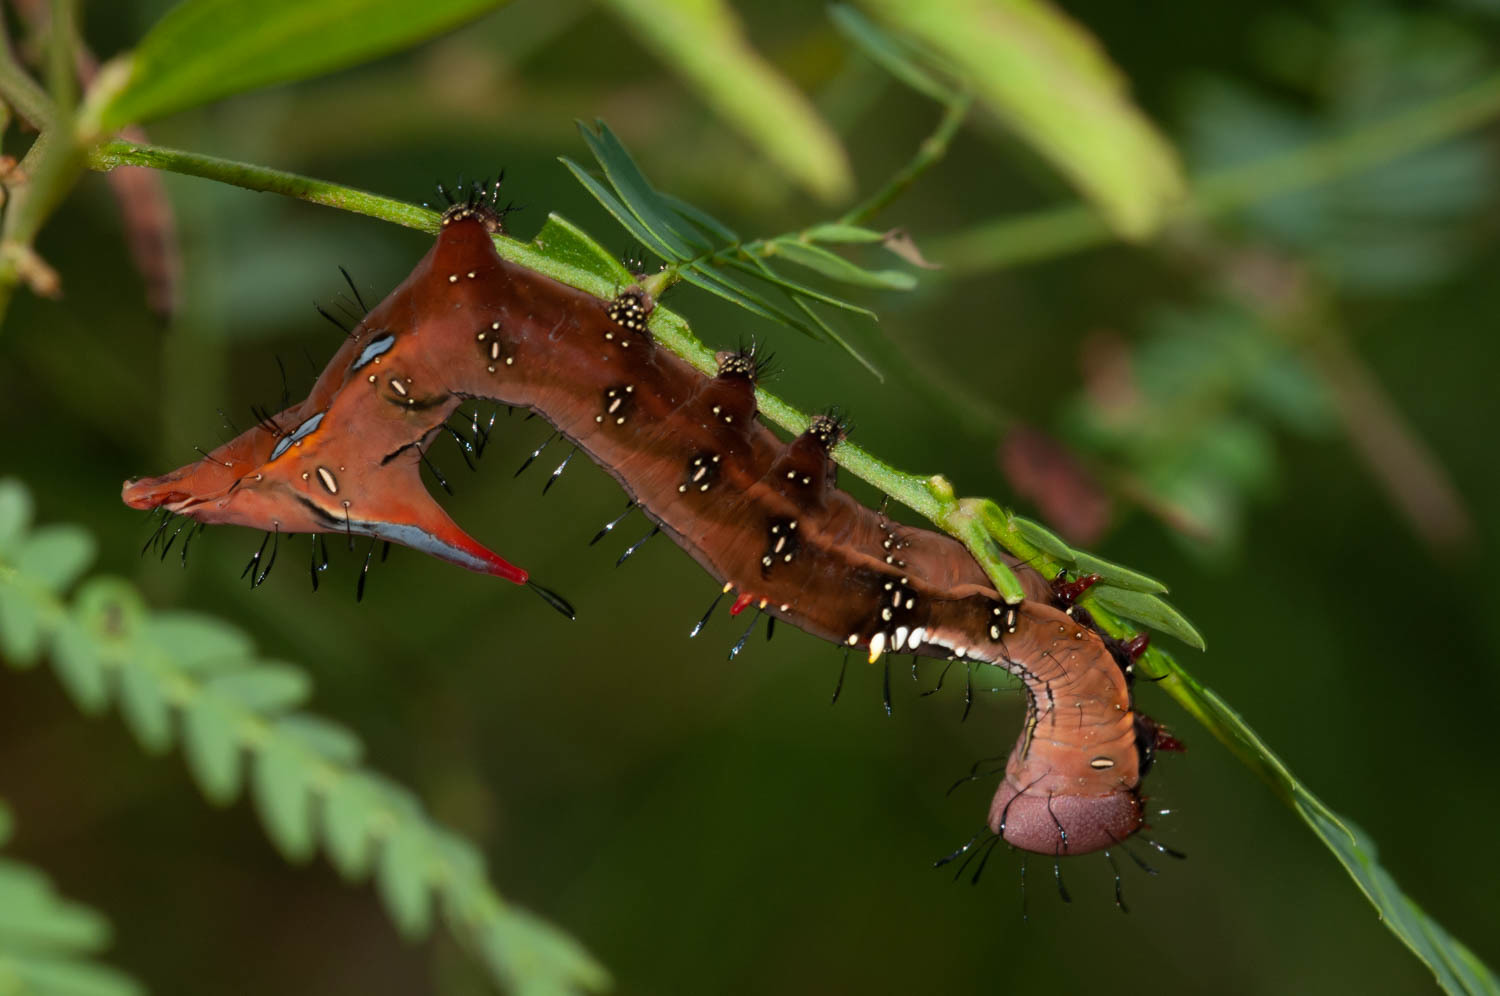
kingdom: Animalia
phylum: Arthropoda
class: Insecta
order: Lepidoptera
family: Notodontidae
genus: Neola
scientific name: Neola semiaurata
